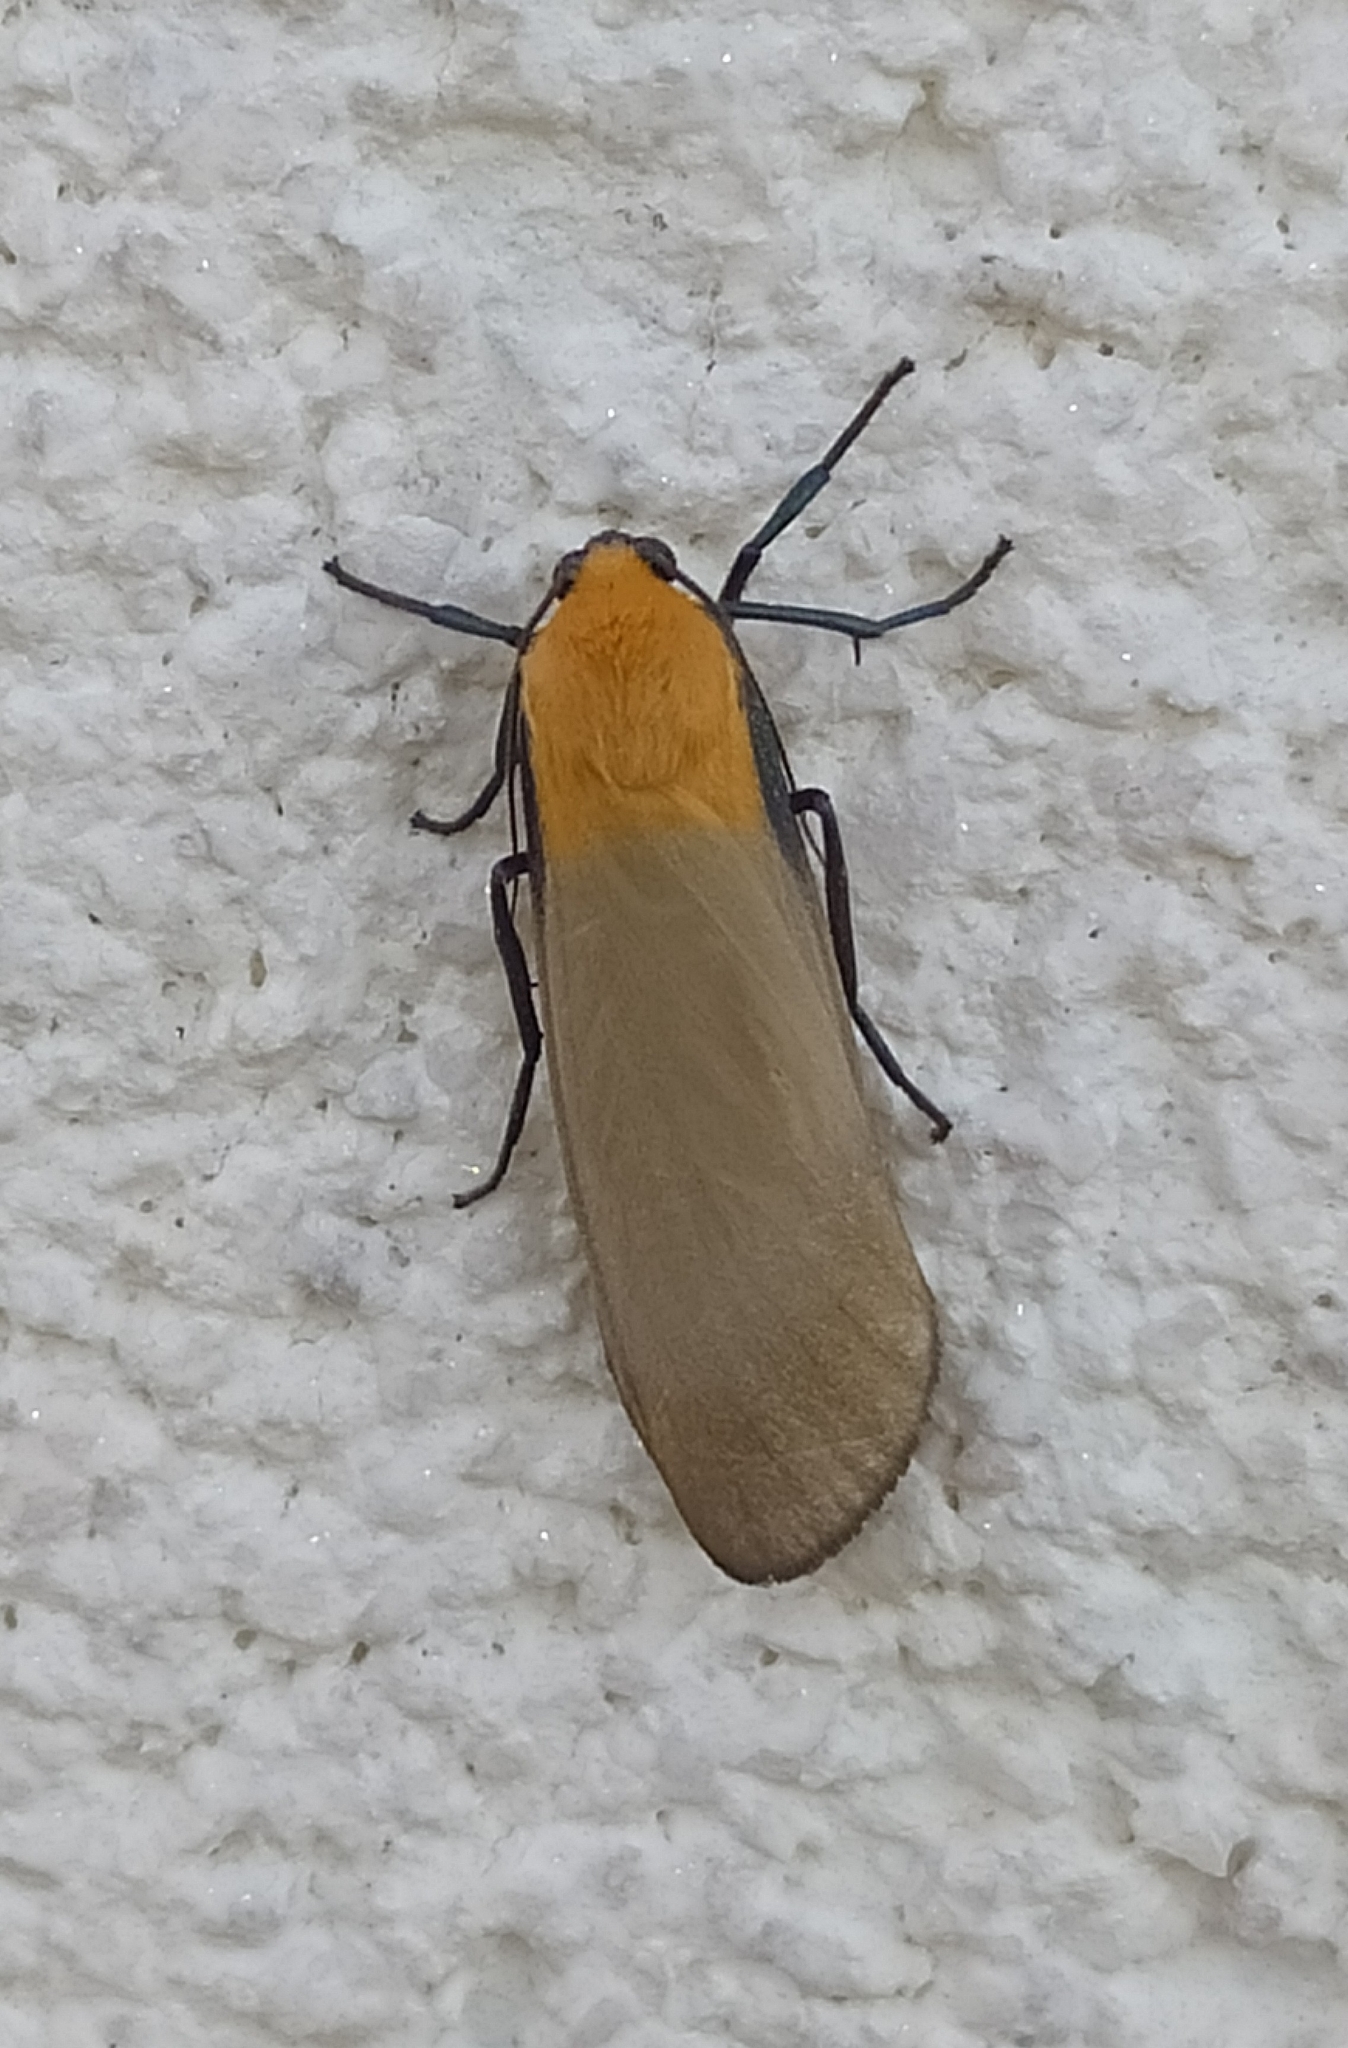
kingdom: Animalia
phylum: Arthropoda
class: Insecta
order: Lepidoptera
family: Erebidae
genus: Lithosia
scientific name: Lithosia quadra
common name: Four-spotted footman
